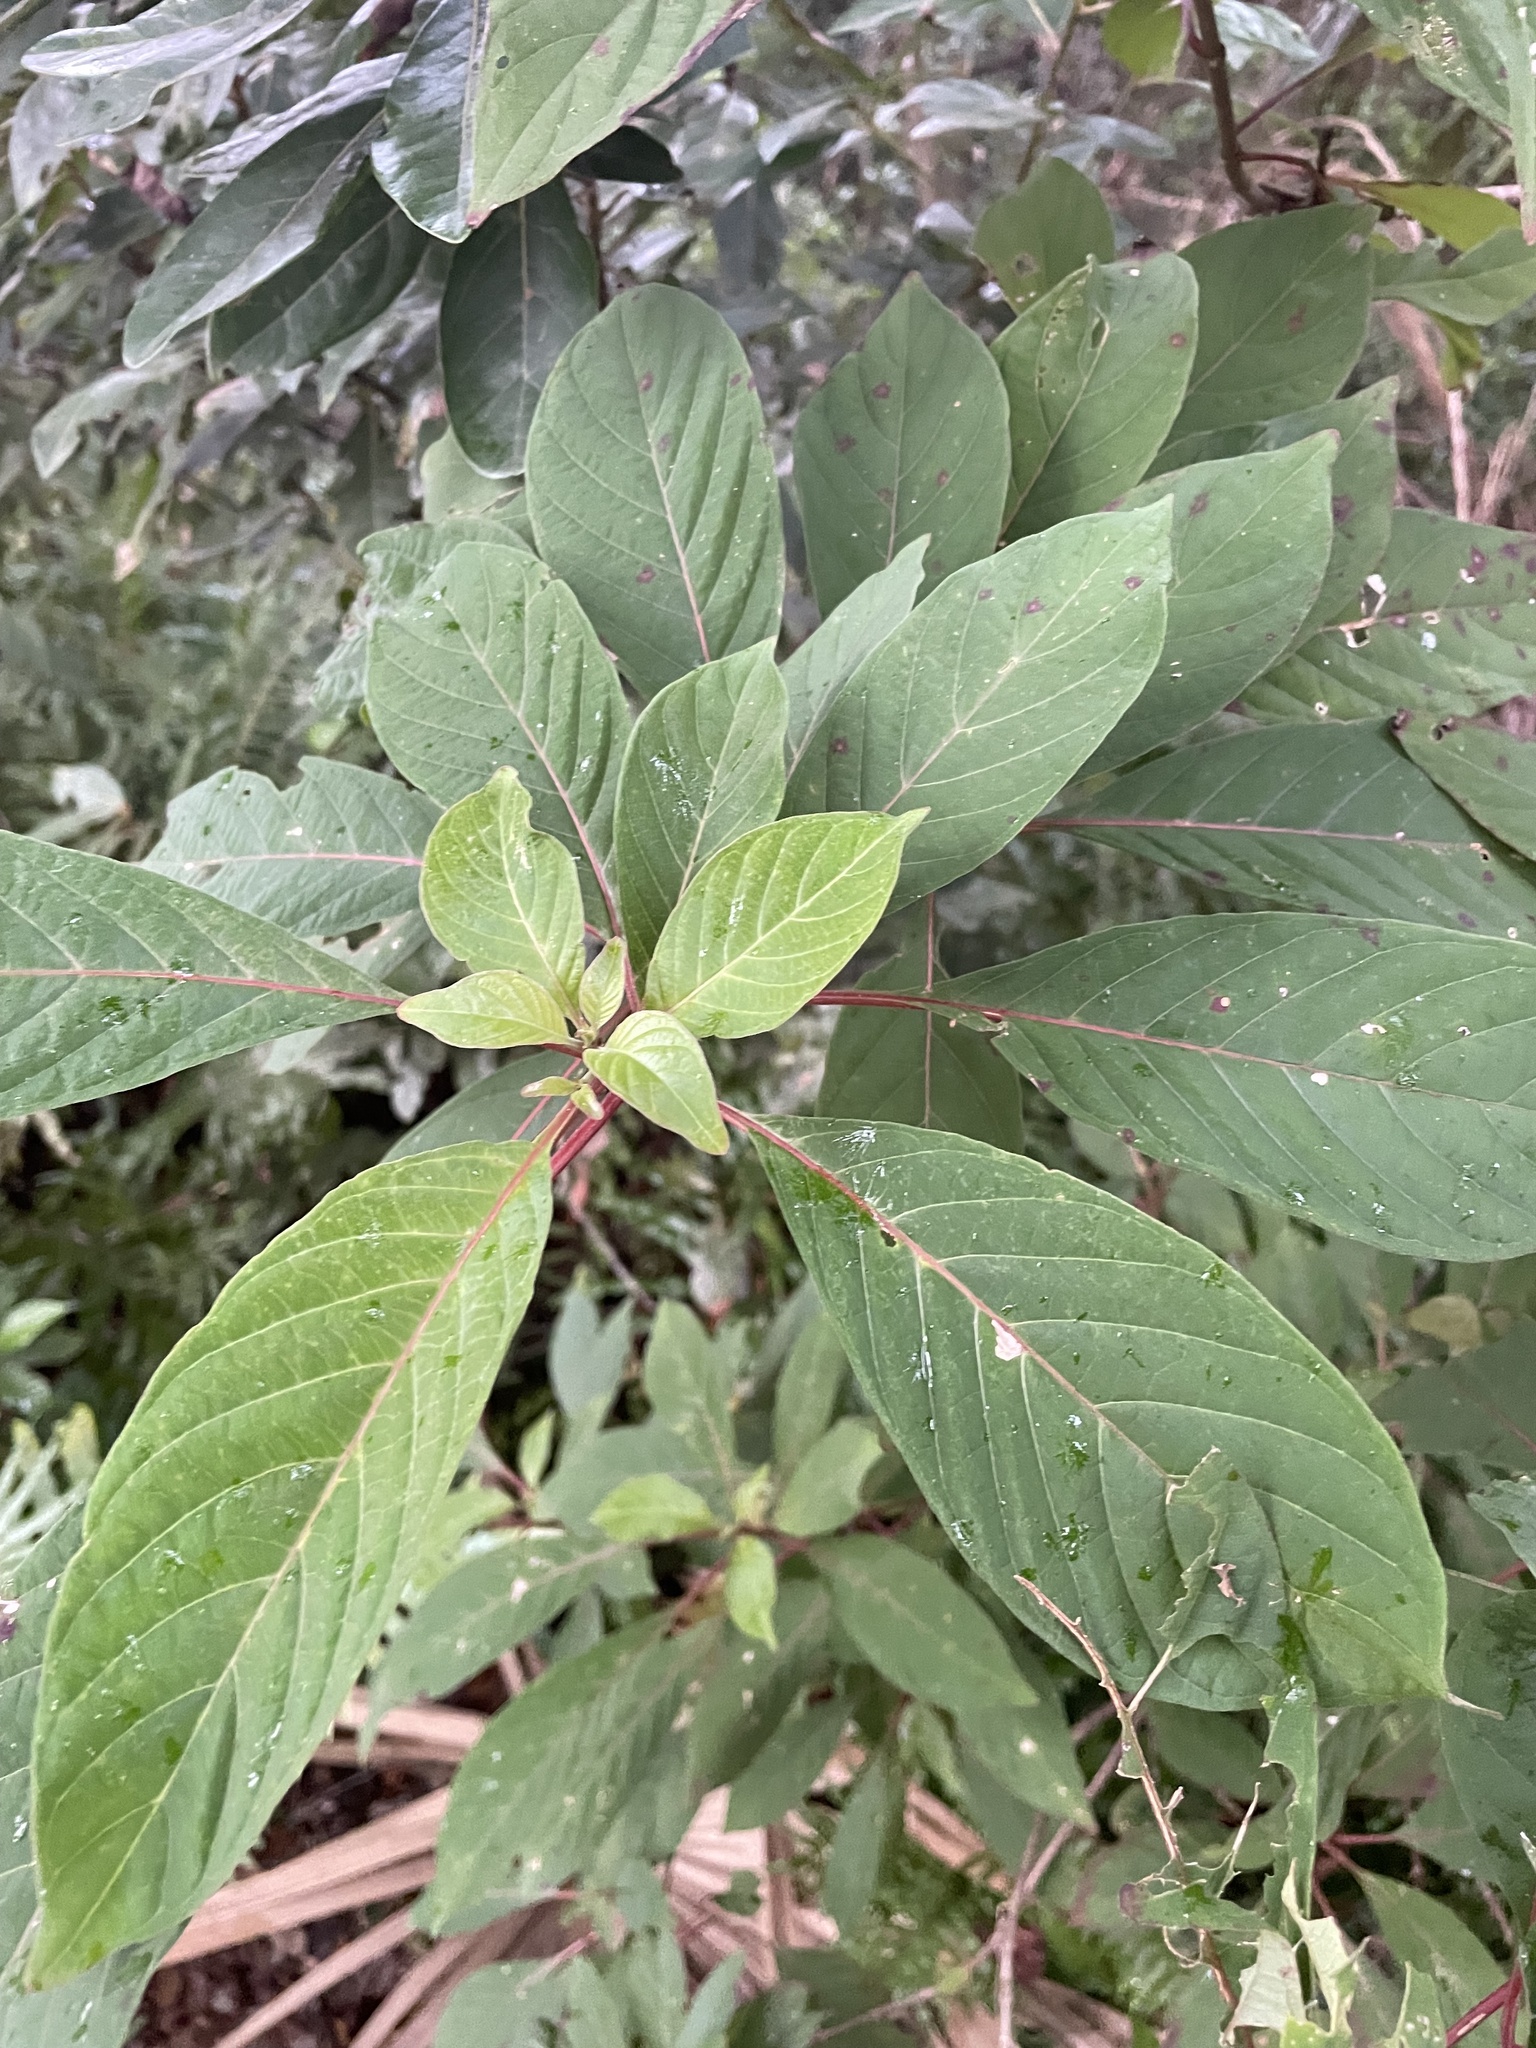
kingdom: Plantae
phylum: Tracheophyta
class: Magnoliopsida
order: Gentianales
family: Rubiaceae
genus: Hamelia
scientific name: Hamelia patens
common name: Redhead
